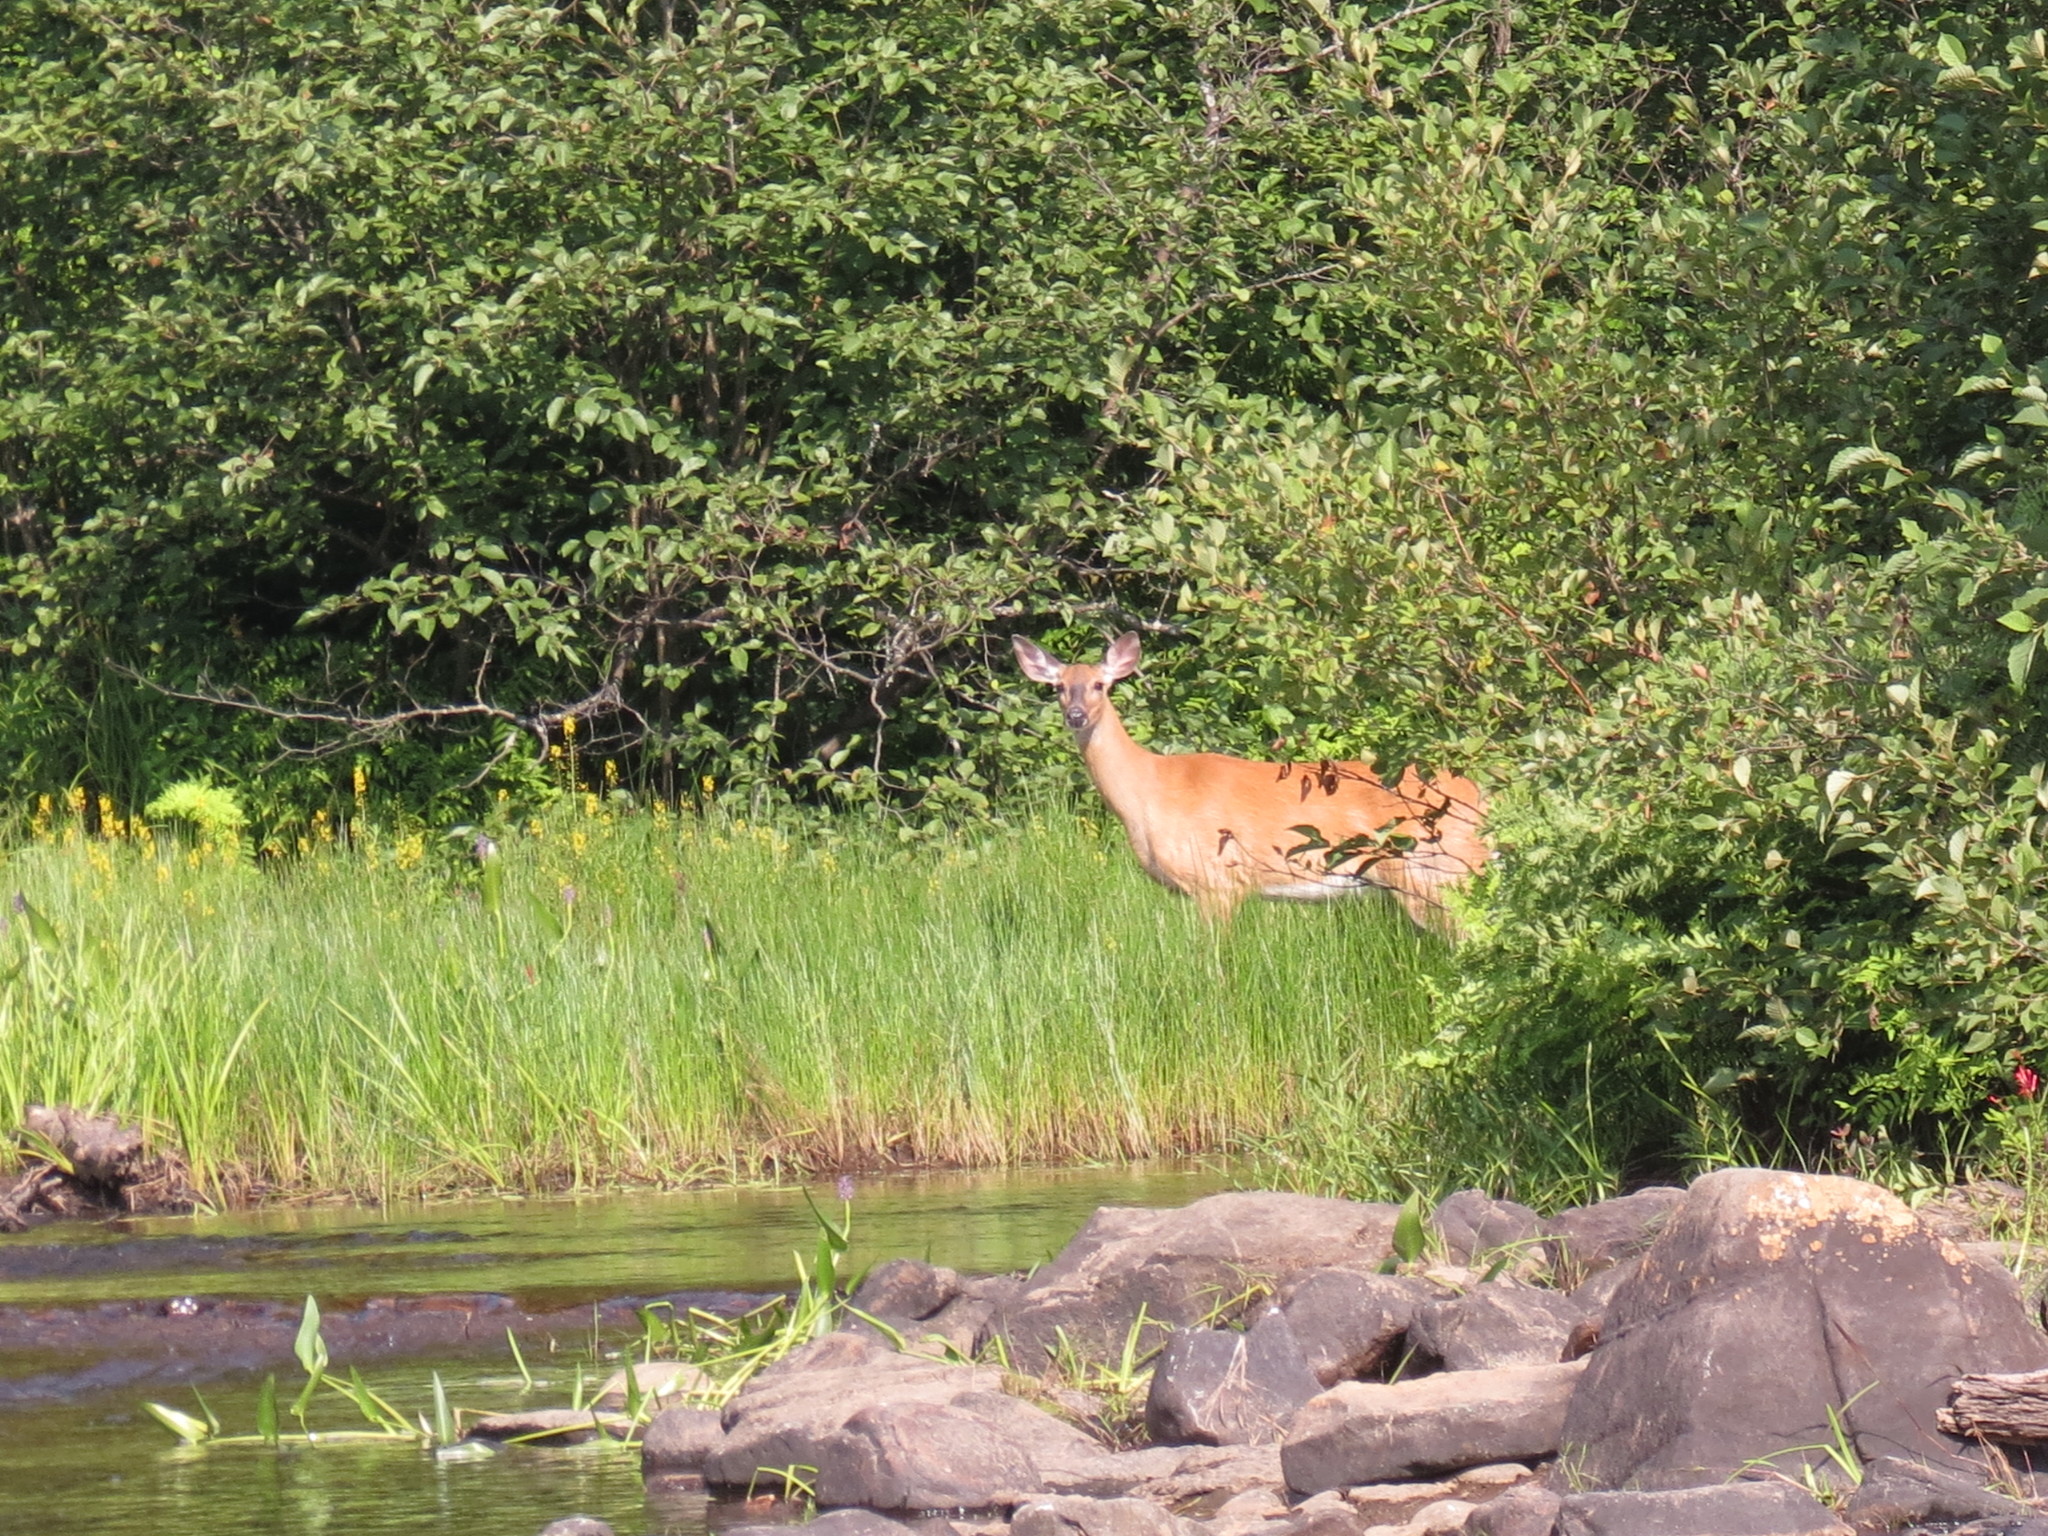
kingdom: Animalia
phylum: Chordata
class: Mammalia
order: Artiodactyla
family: Cervidae
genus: Odocoileus
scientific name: Odocoileus virginianus
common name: White-tailed deer
